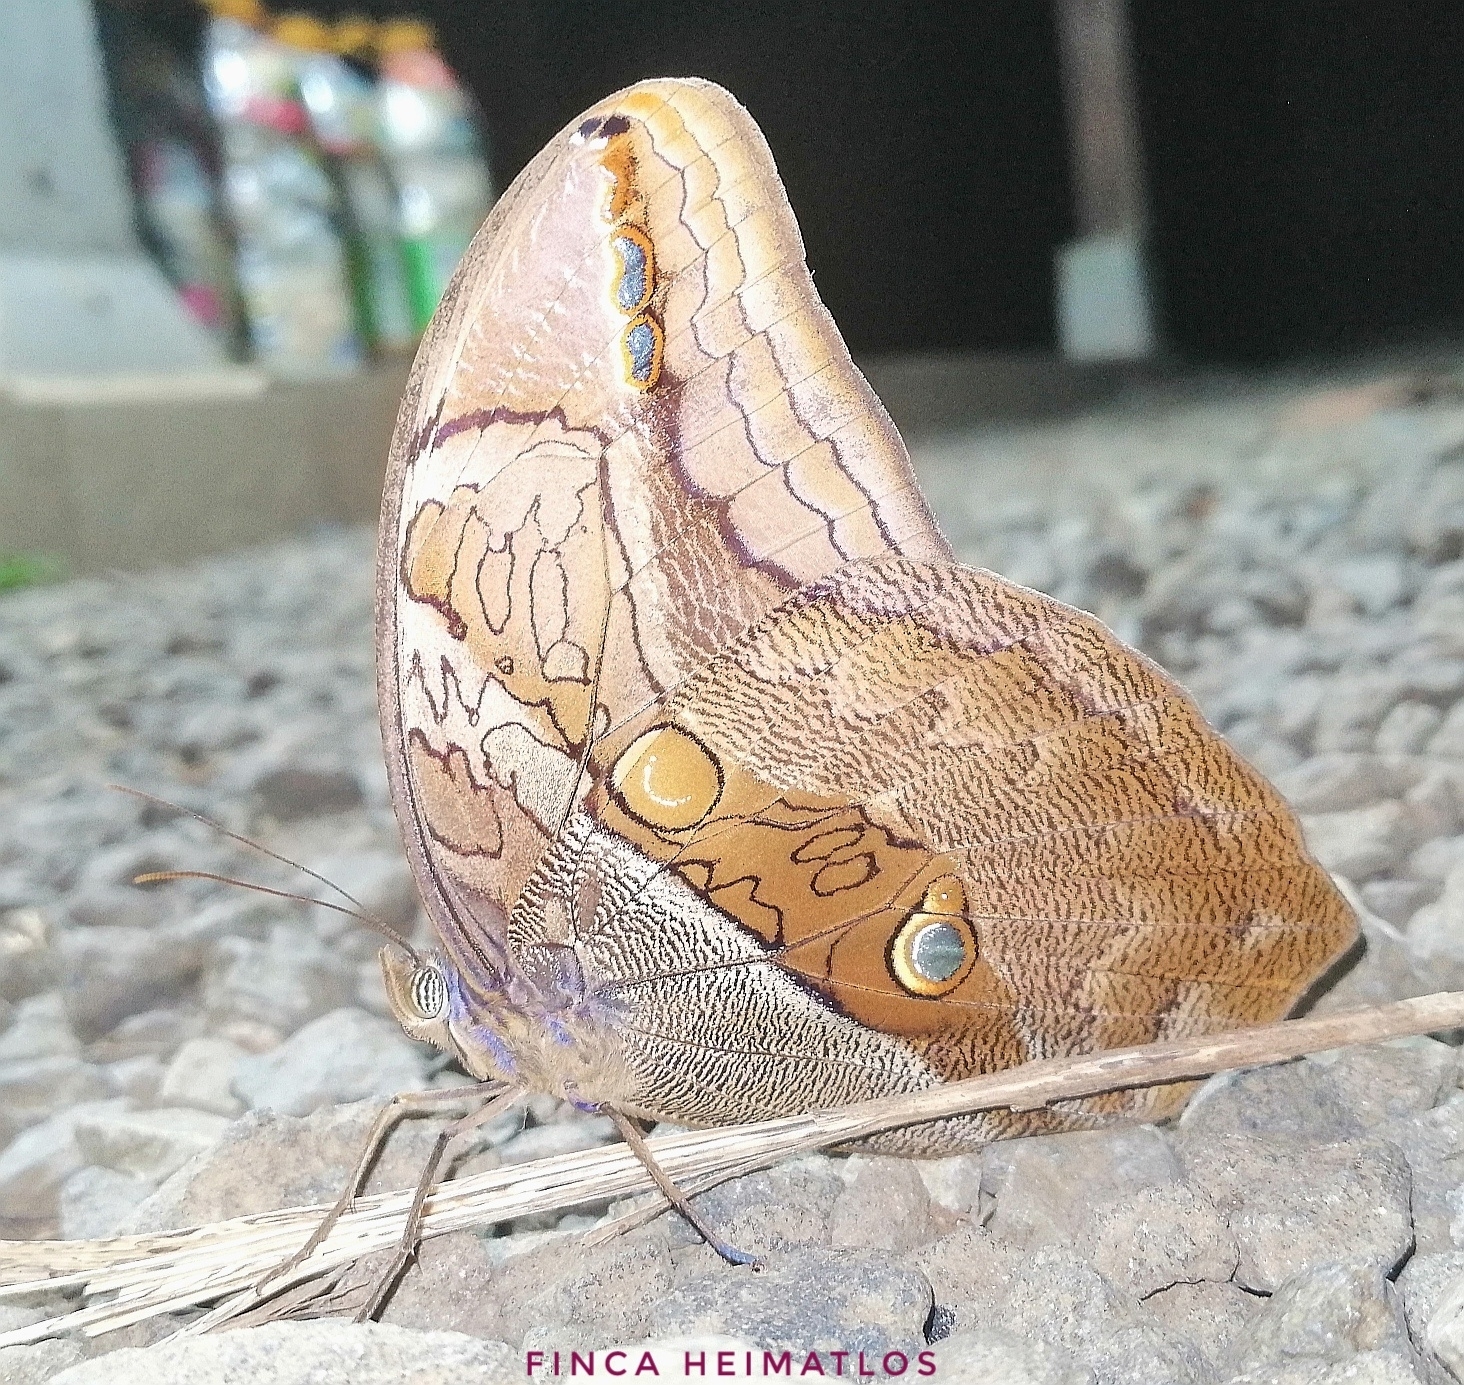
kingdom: Animalia
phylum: Arthropoda
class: Insecta
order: Lepidoptera
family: Nymphalidae
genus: Eryphanis
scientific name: Eryphanis polyxena
